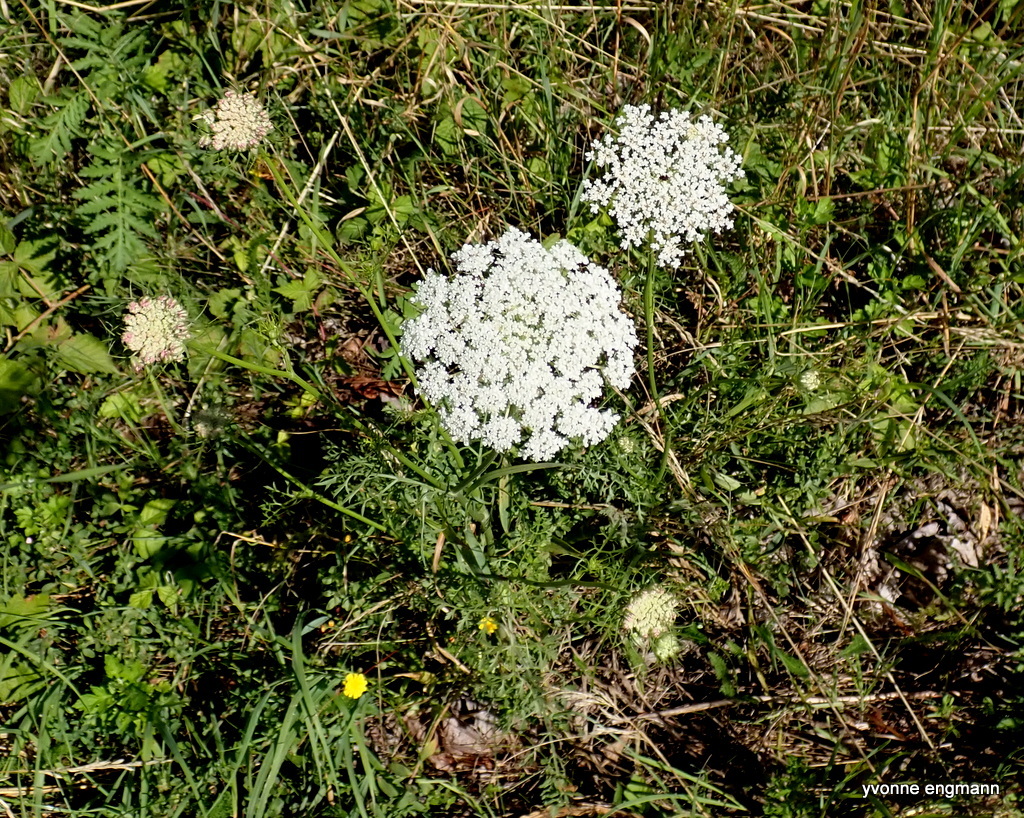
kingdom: Plantae
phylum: Tracheophyta
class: Magnoliopsida
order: Apiales
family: Apiaceae
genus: Daucus
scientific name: Daucus carota
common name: Wild carrot
